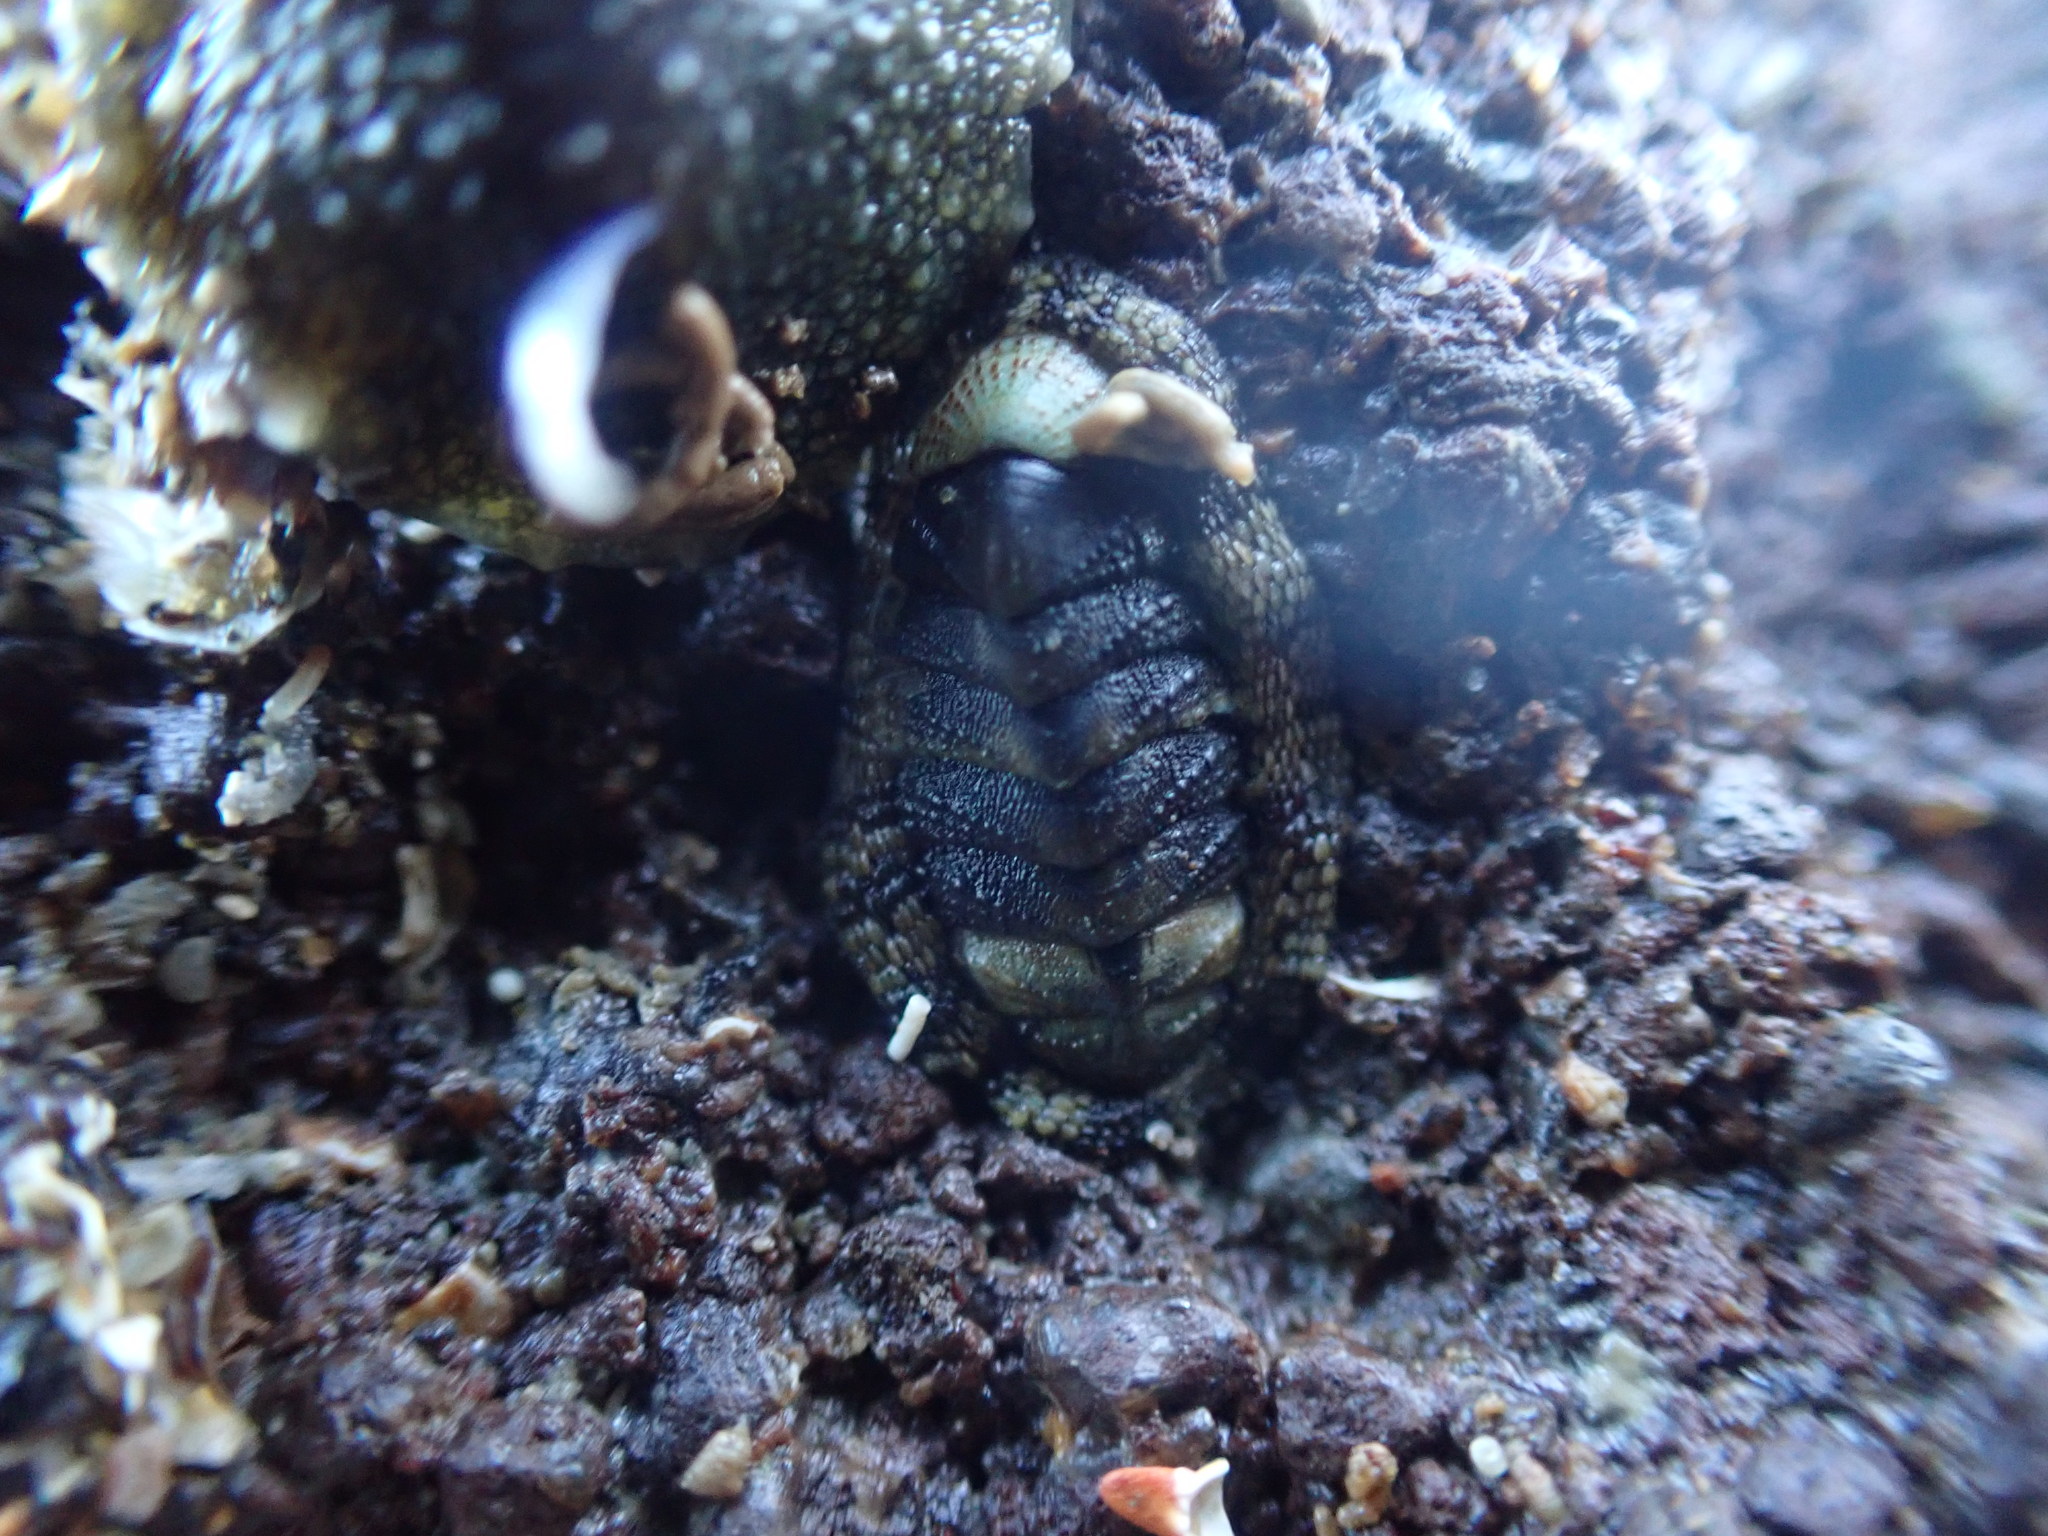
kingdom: Animalia
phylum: Mollusca
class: Polyplacophora
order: Chitonida
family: Chitonidae
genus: Sypharochiton
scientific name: Sypharochiton pelliserpentis
